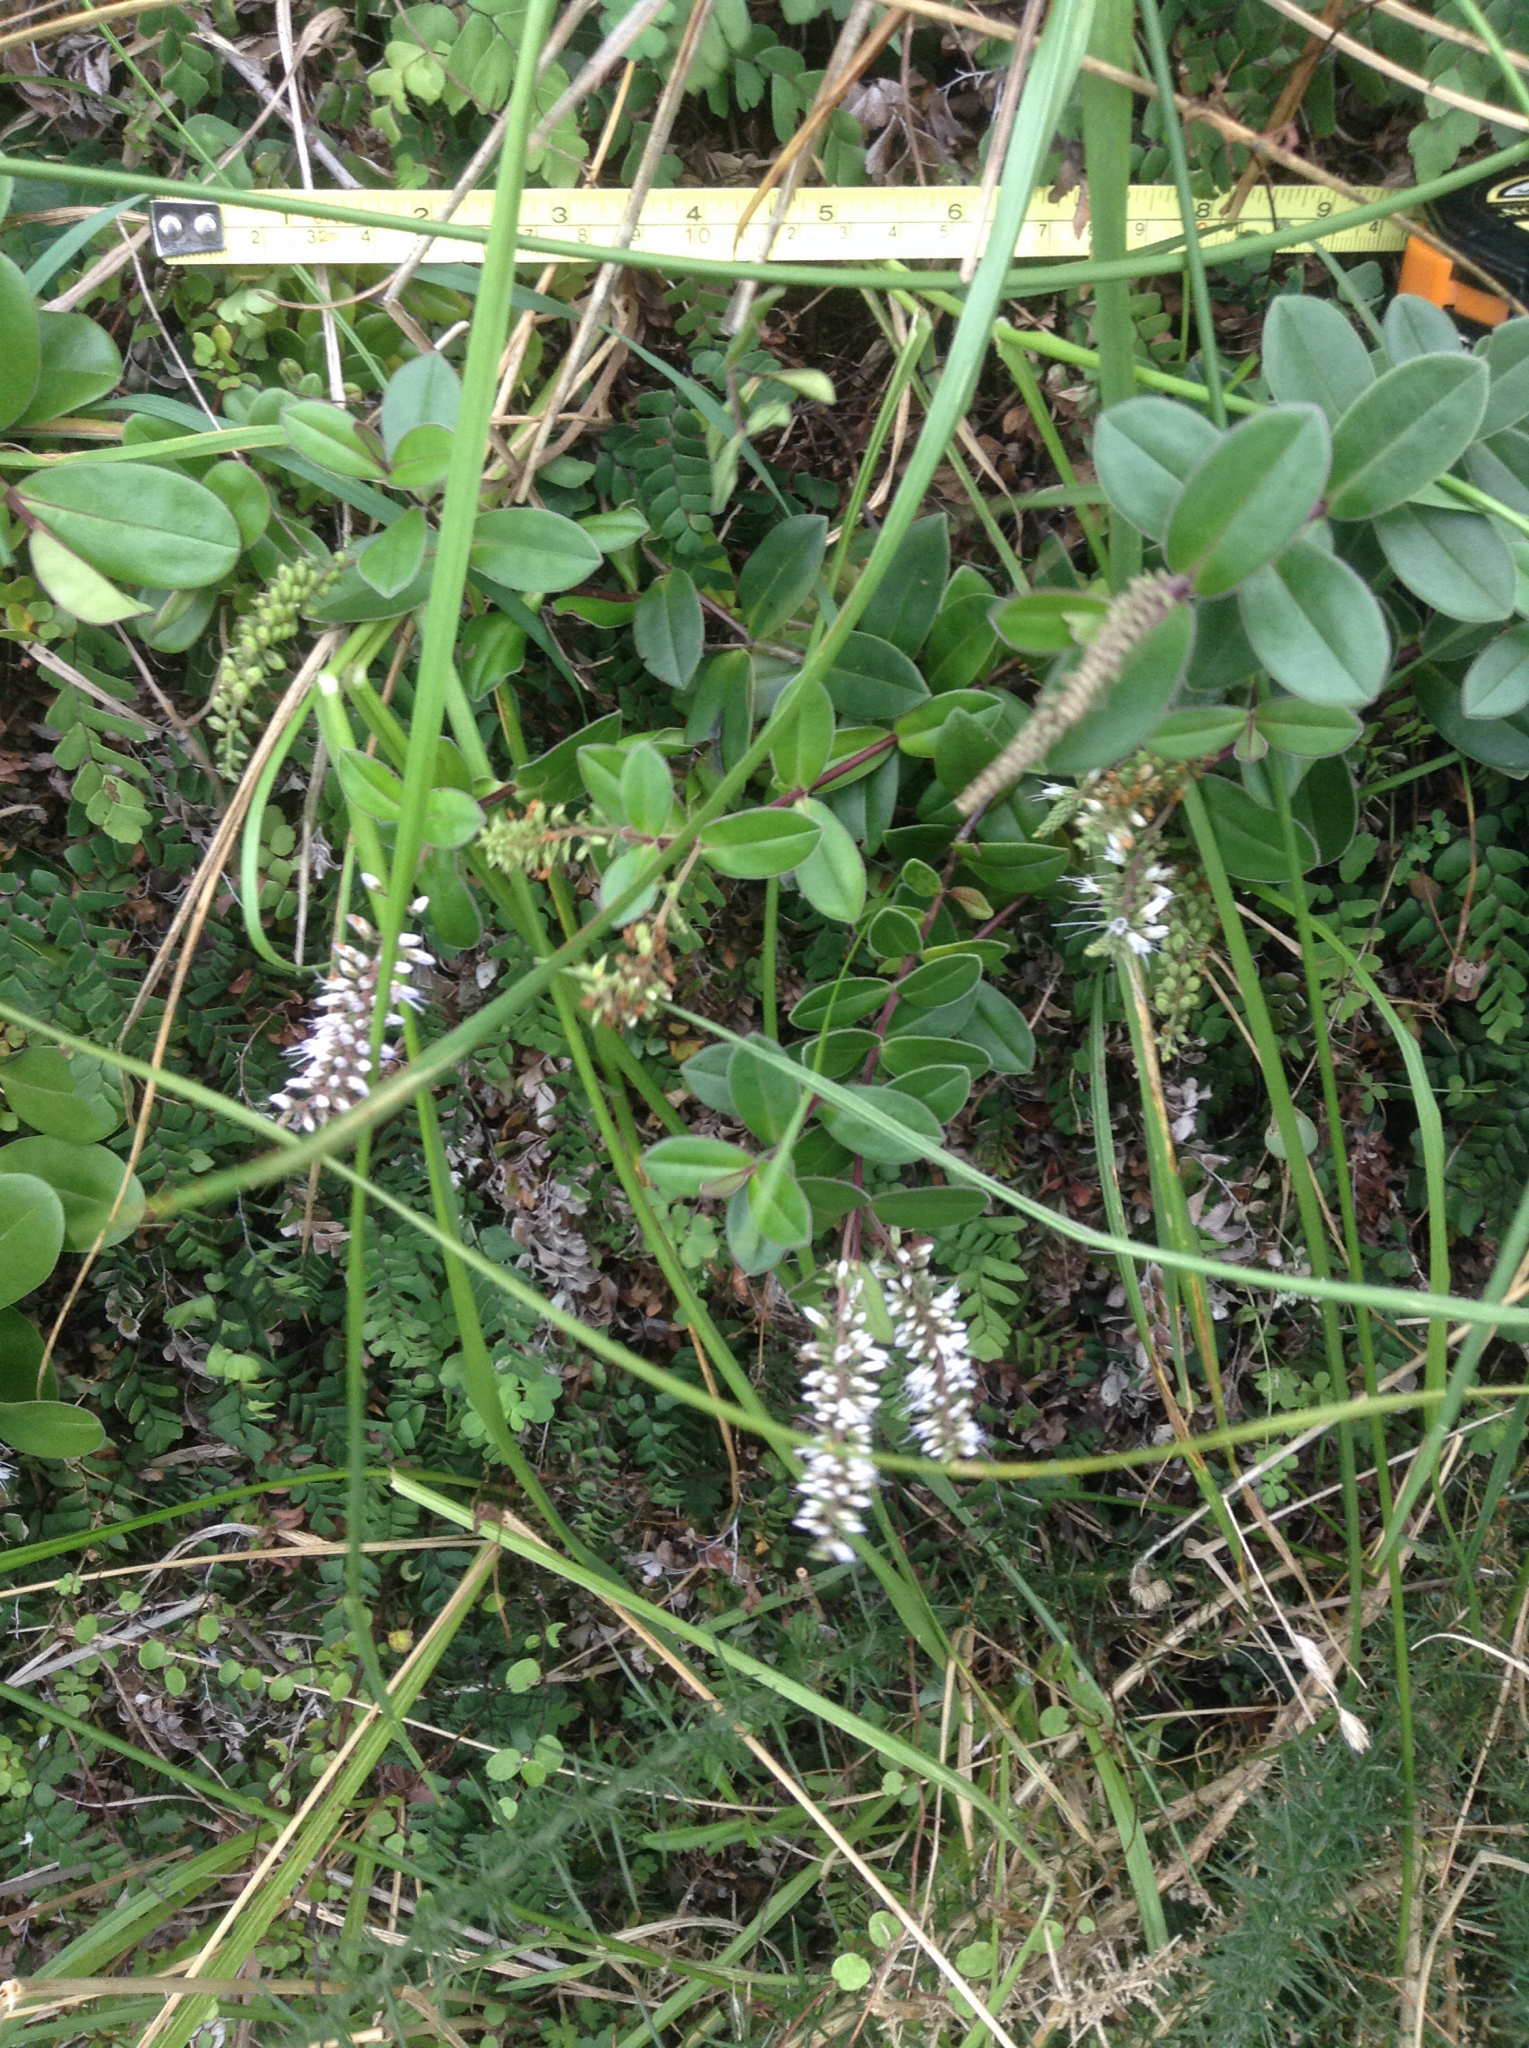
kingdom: Plantae
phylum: Tracheophyta
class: Magnoliopsida
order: Lamiales
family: Plantaginaceae
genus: Veronica
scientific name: Veronica obtusata
